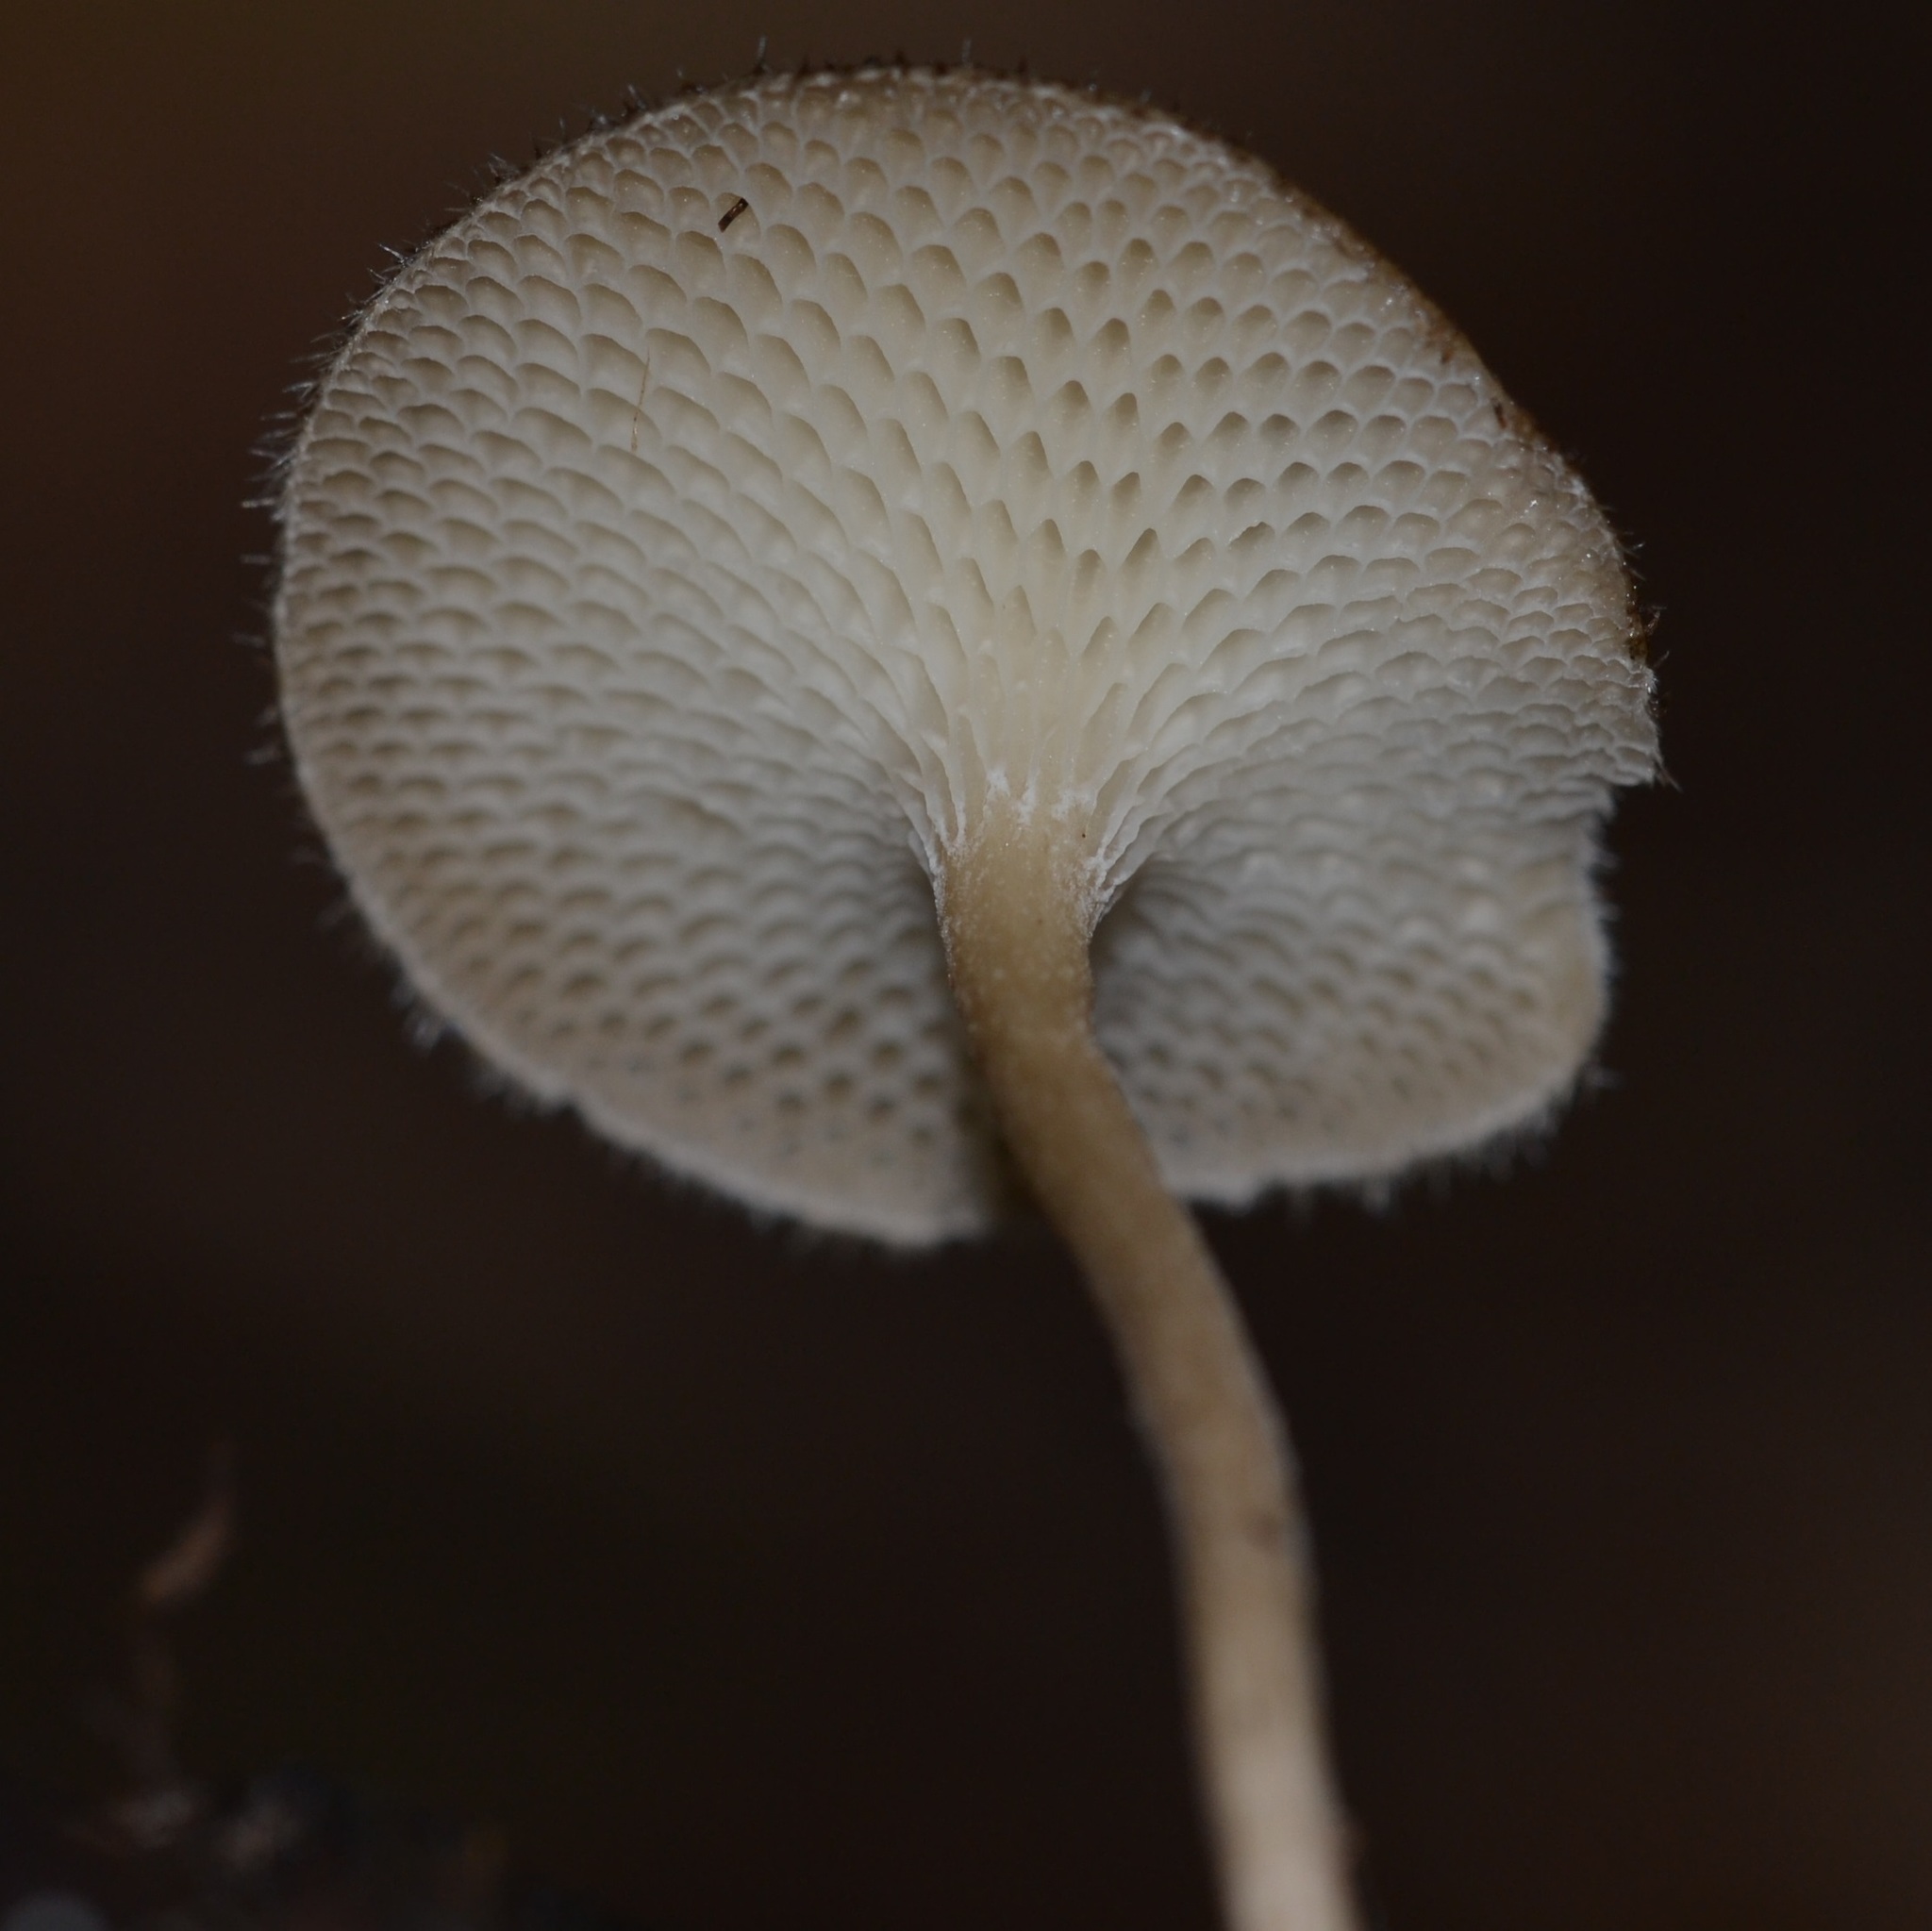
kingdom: Fungi
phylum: Basidiomycota
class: Agaricomycetes
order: Polyporales
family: Polyporaceae
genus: Lentinus
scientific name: Lentinus arcularius
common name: Spring polypore
